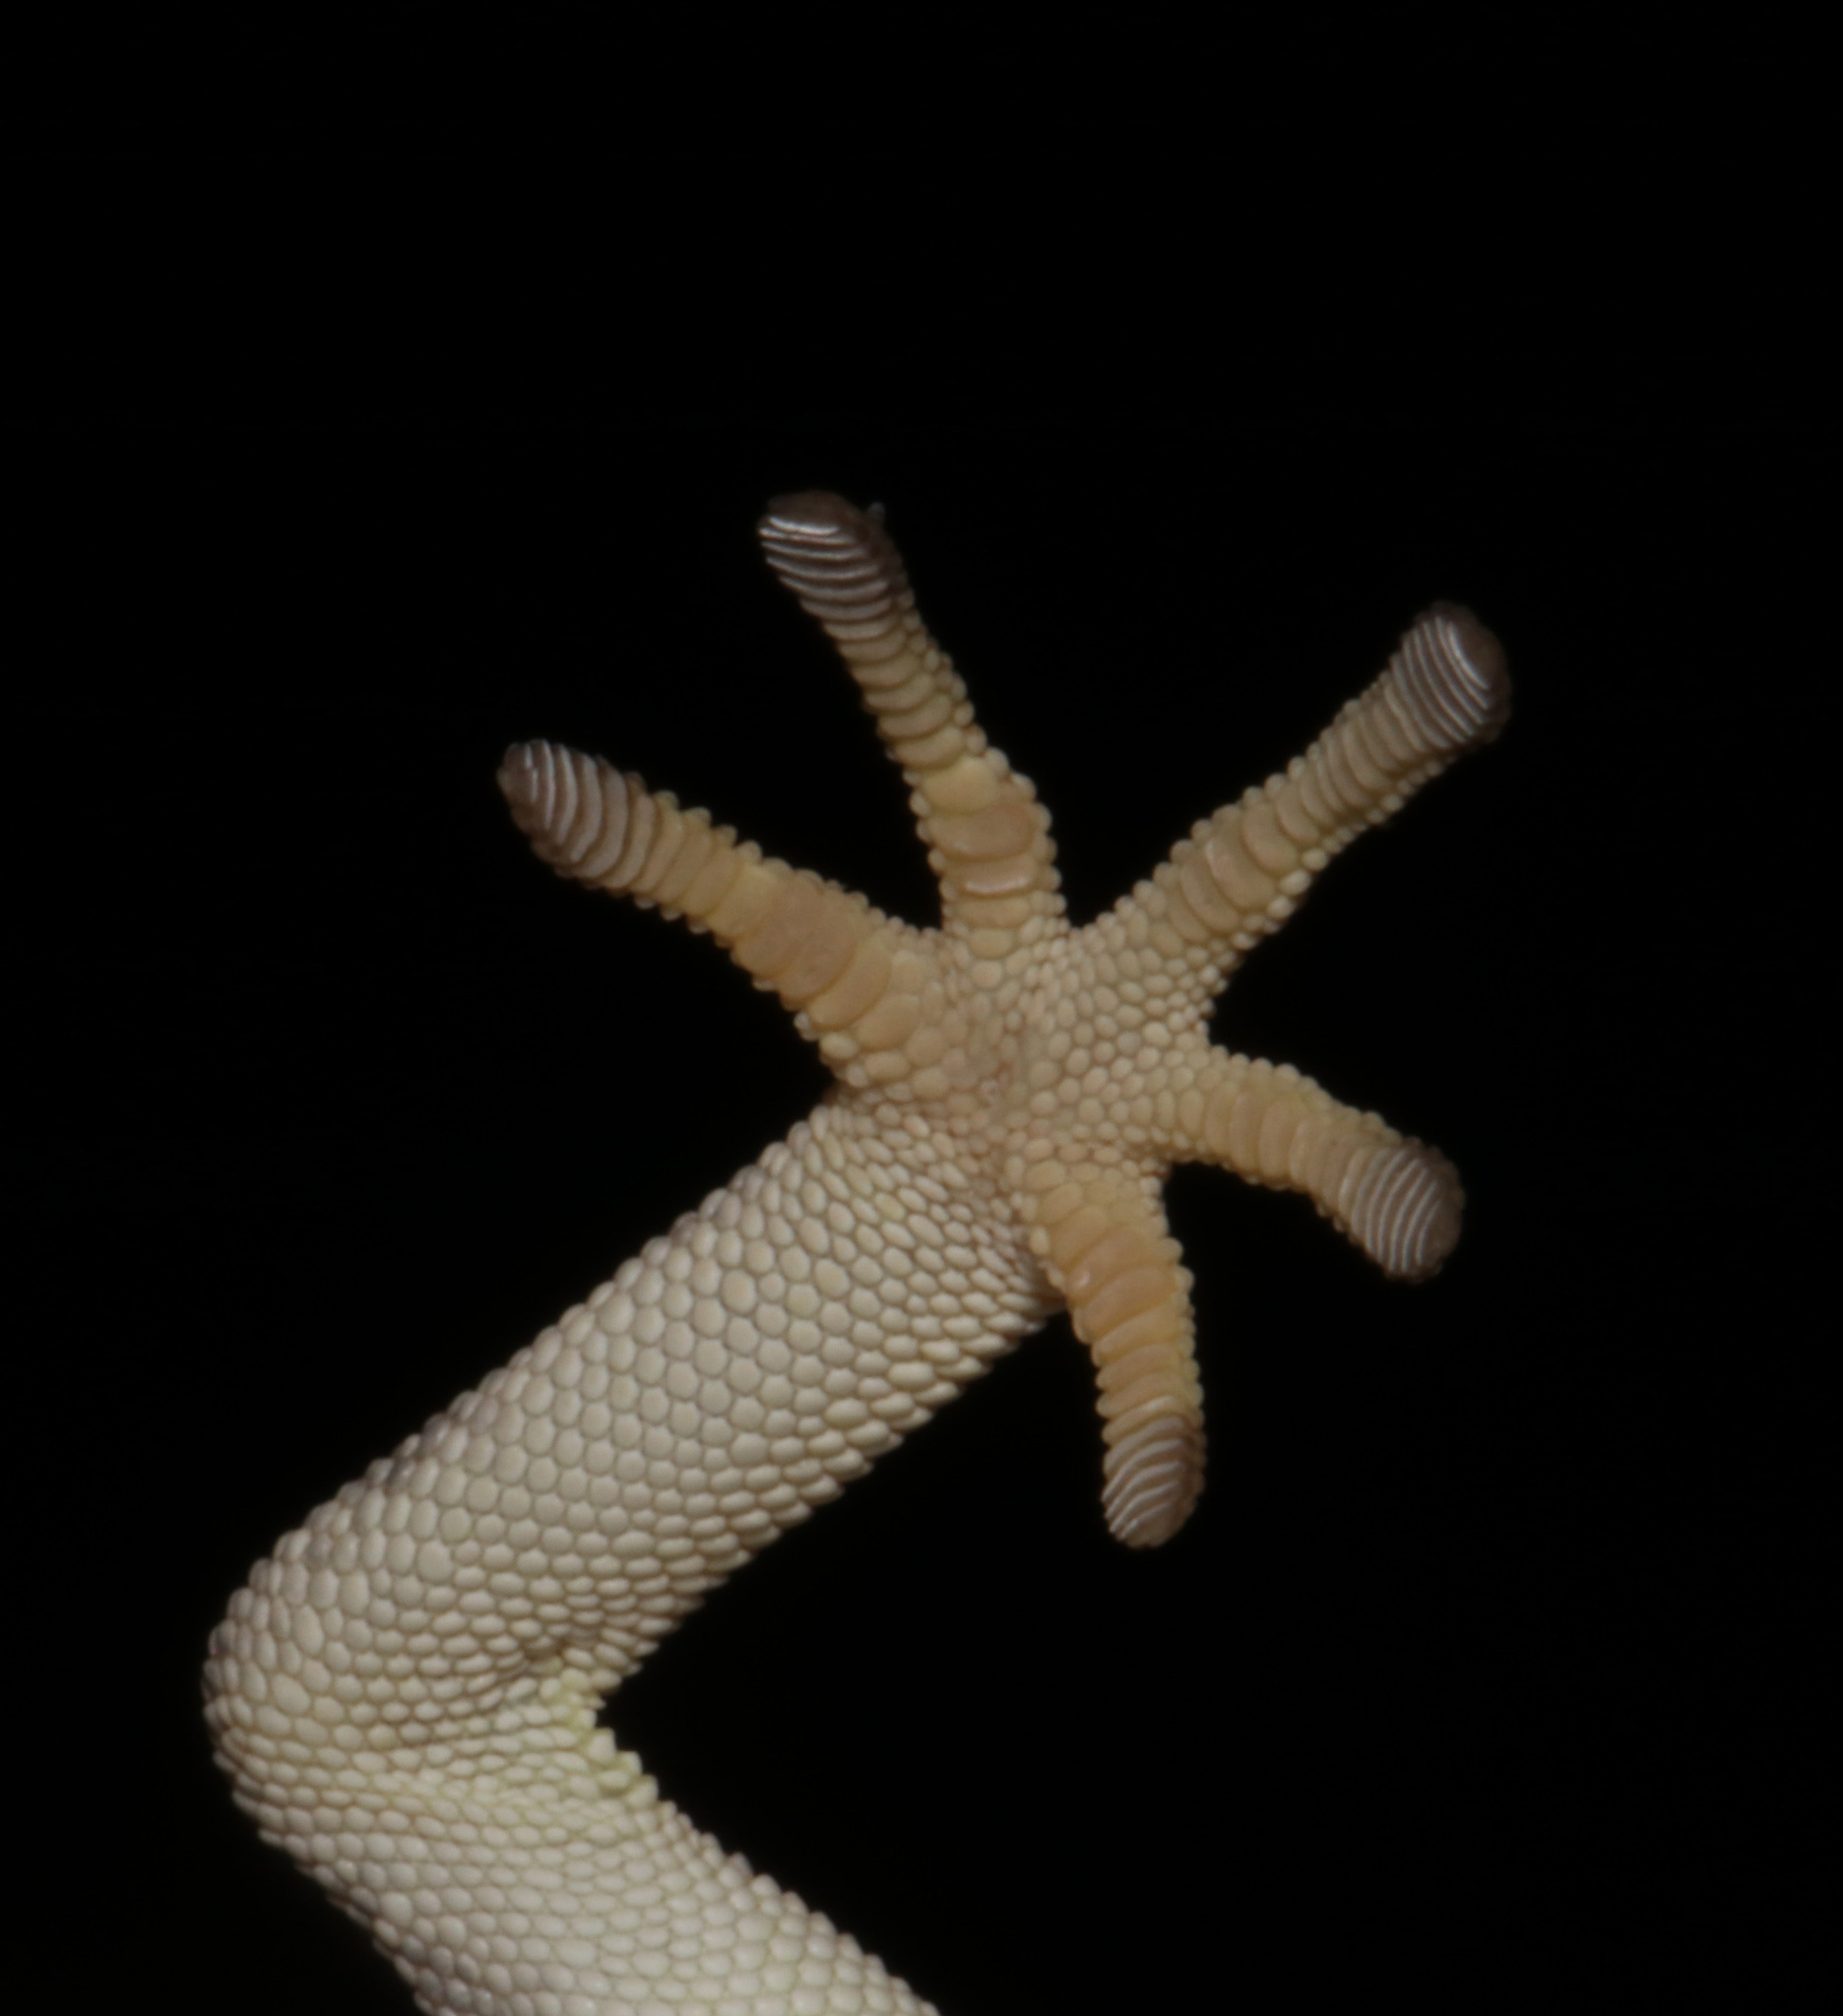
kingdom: Animalia
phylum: Chordata
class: Squamata
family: Gekkonidae
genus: Rhoptropus
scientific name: Rhoptropus afer
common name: Namib day gecko
